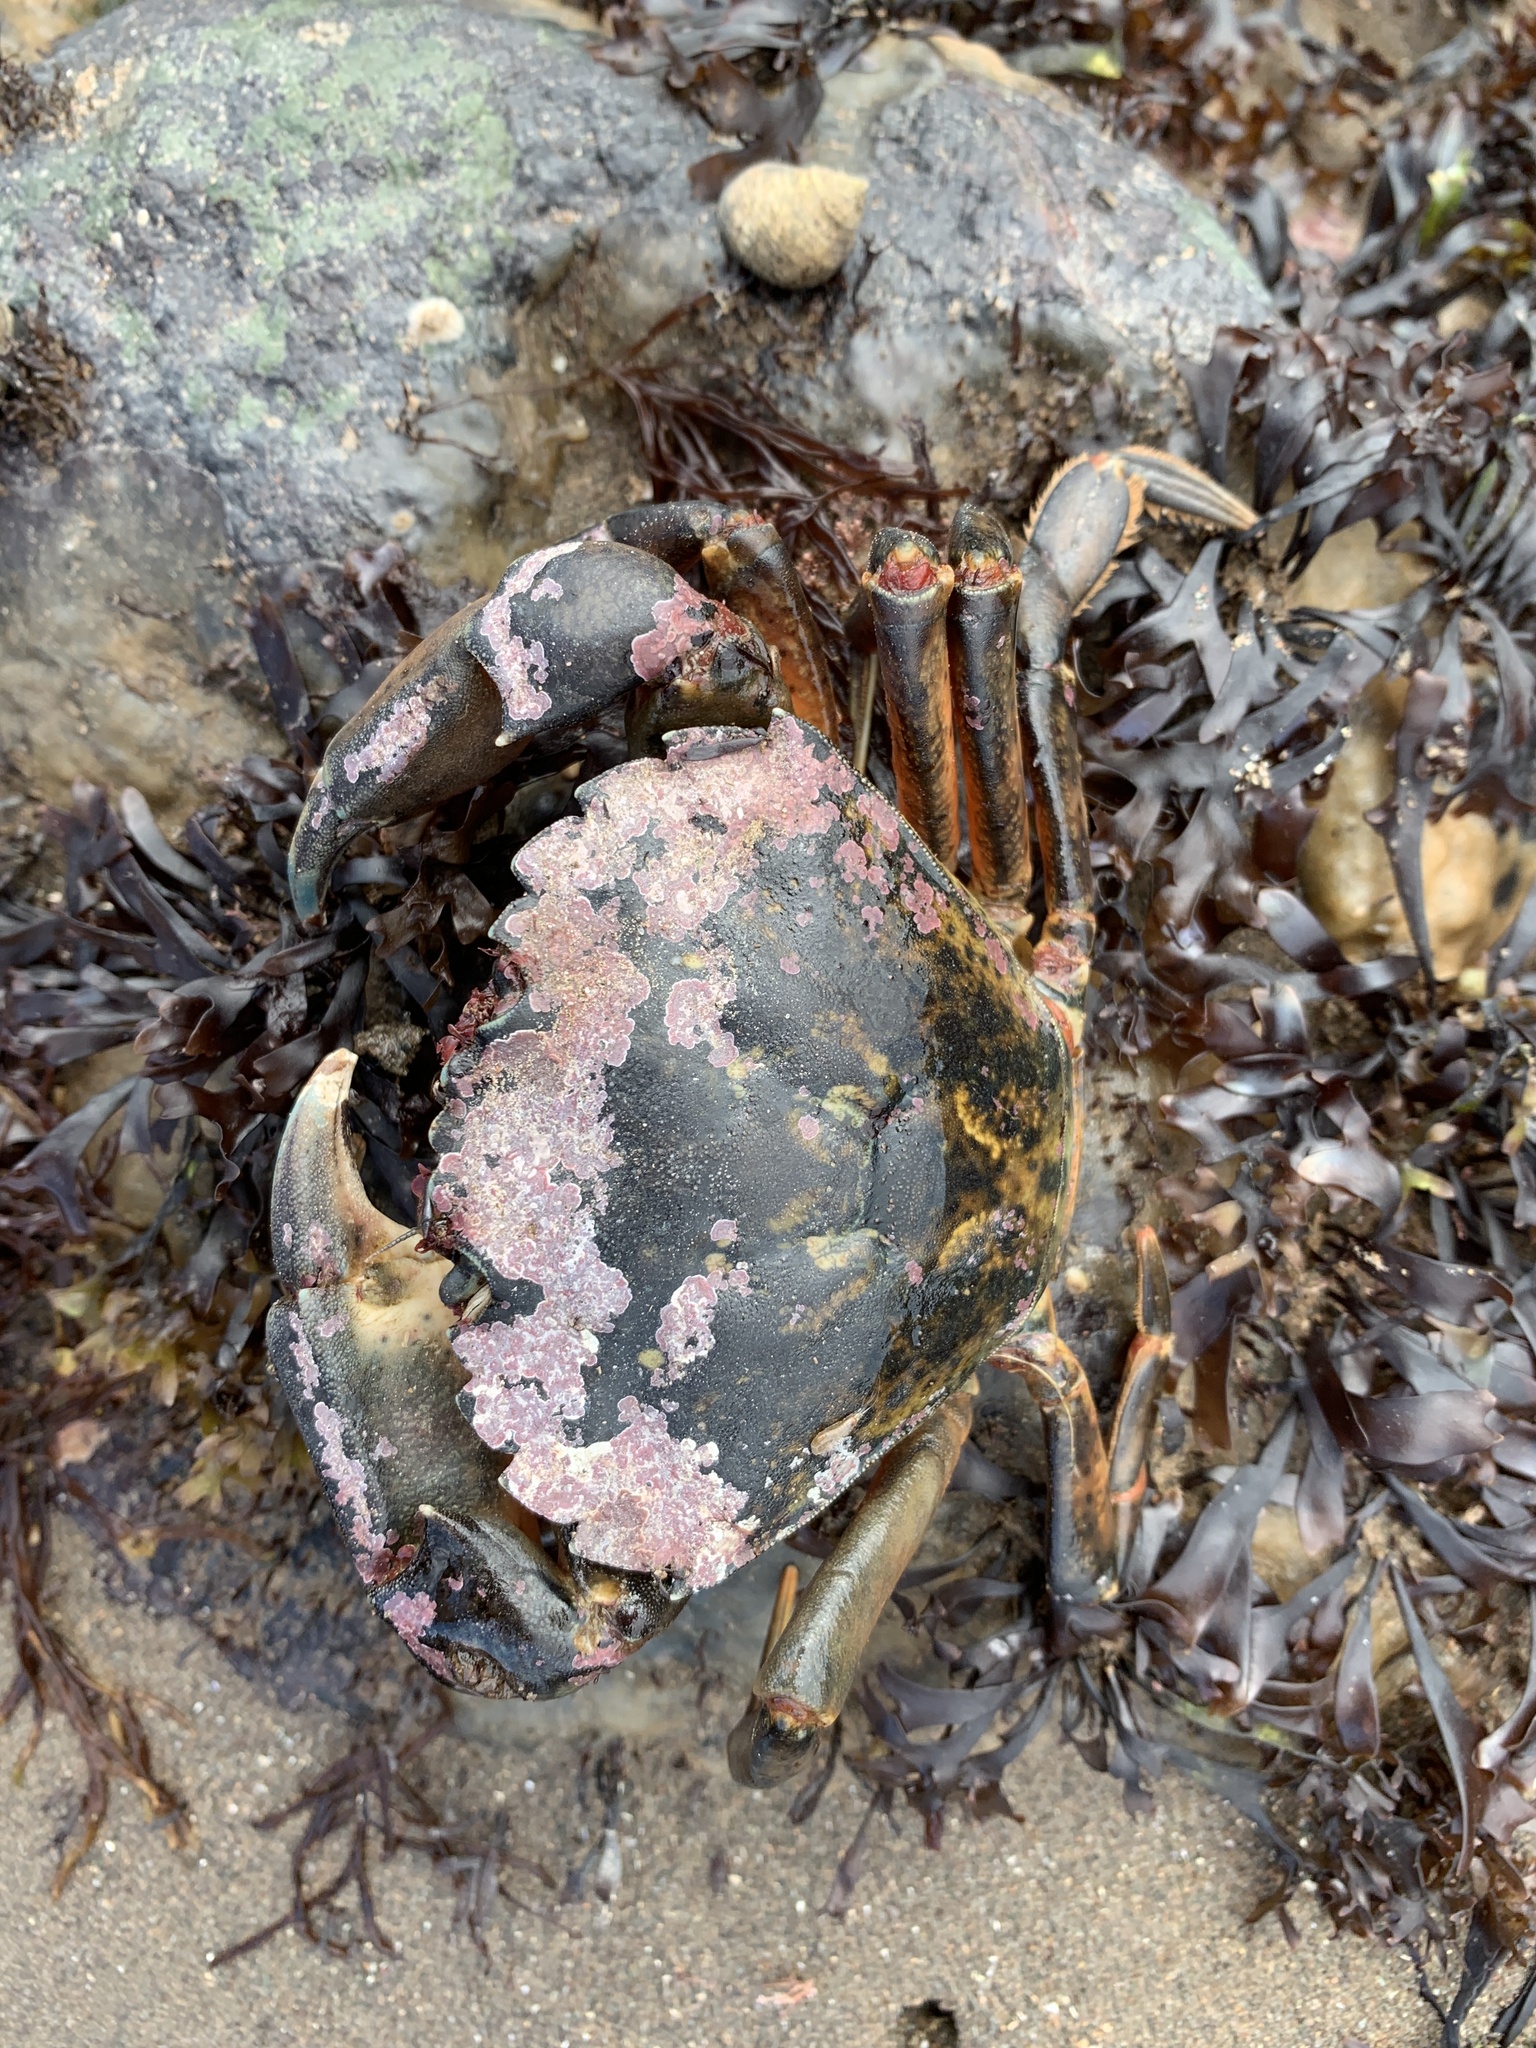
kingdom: Animalia
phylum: Arthropoda
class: Malacostraca
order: Decapoda
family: Carcinidae
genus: Carcinus
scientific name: Carcinus maenas
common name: European green crab
